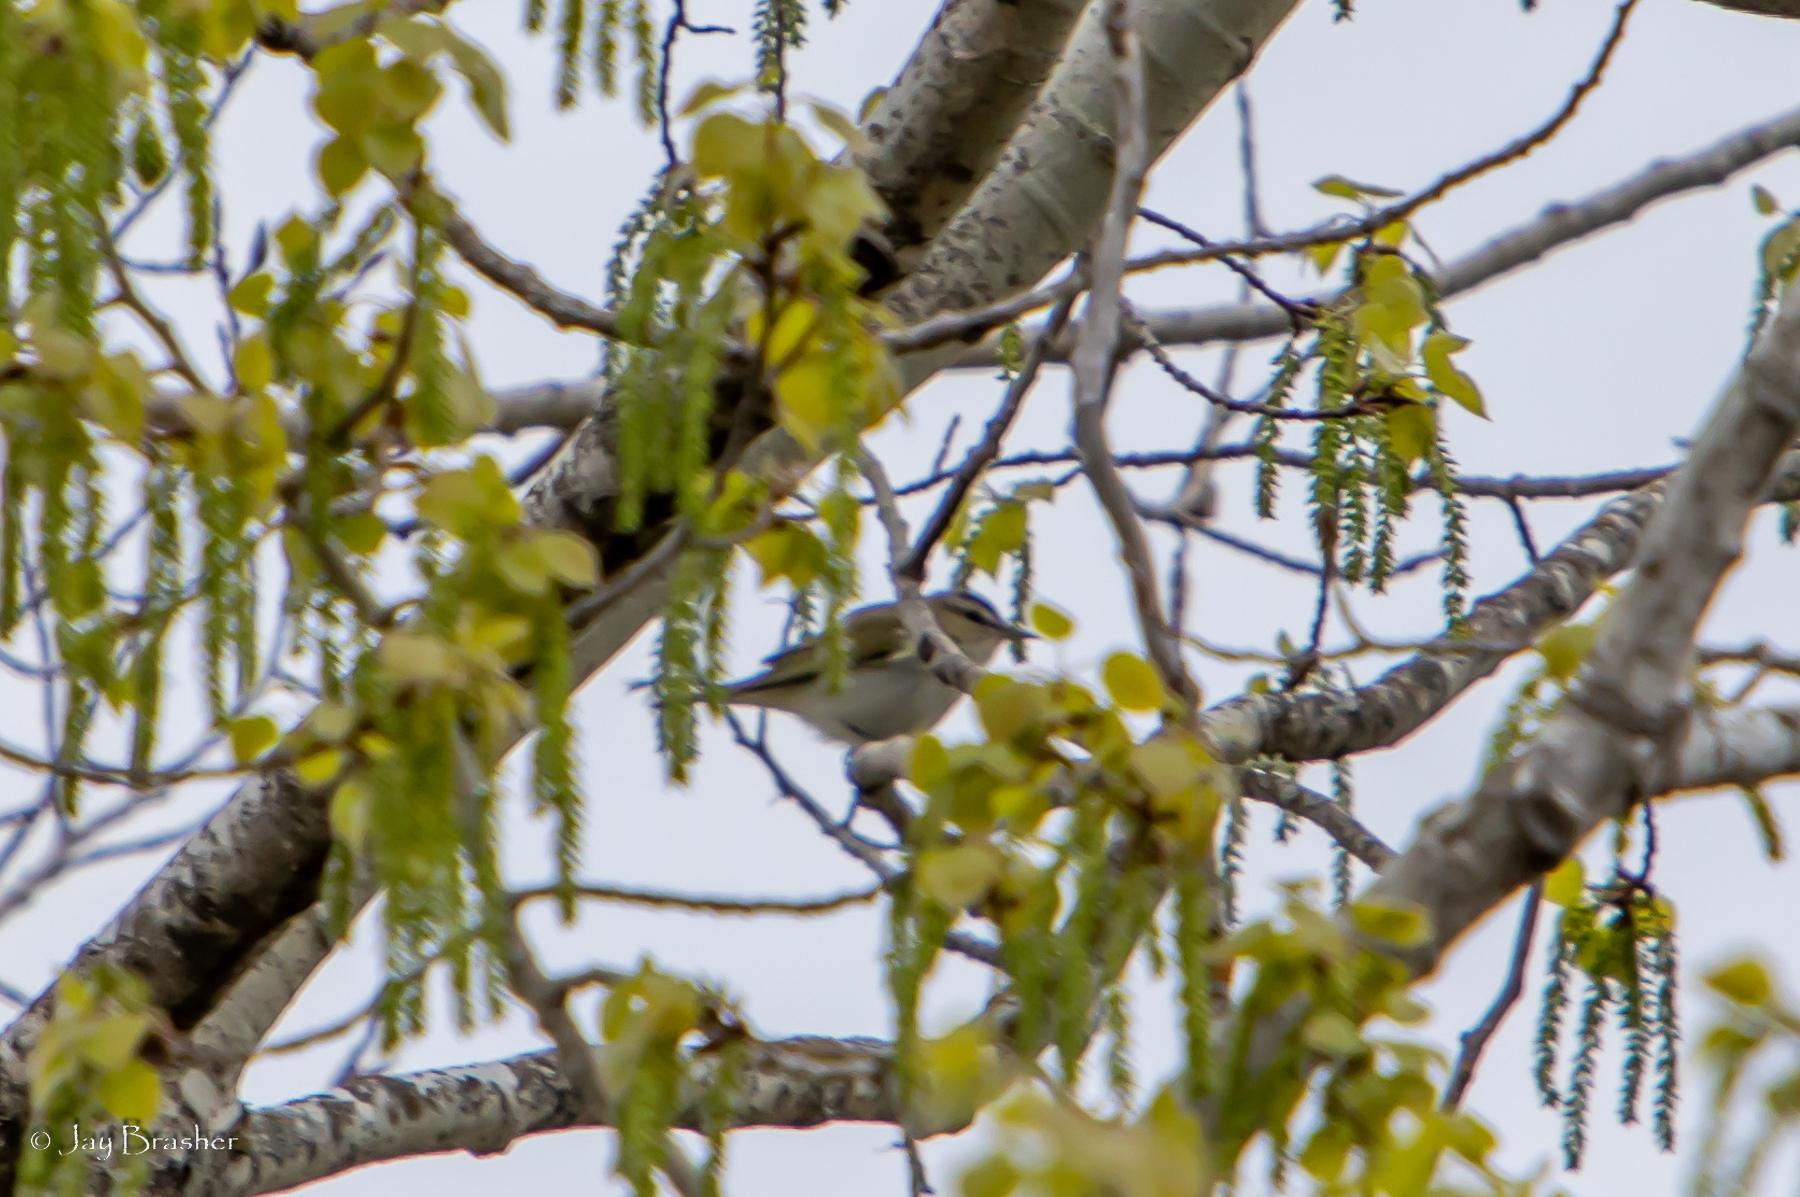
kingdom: Animalia
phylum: Chordata
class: Aves
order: Passeriformes
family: Vireonidae
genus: Vireo
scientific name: Vireo olivaceus
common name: Red-eyed vireo
